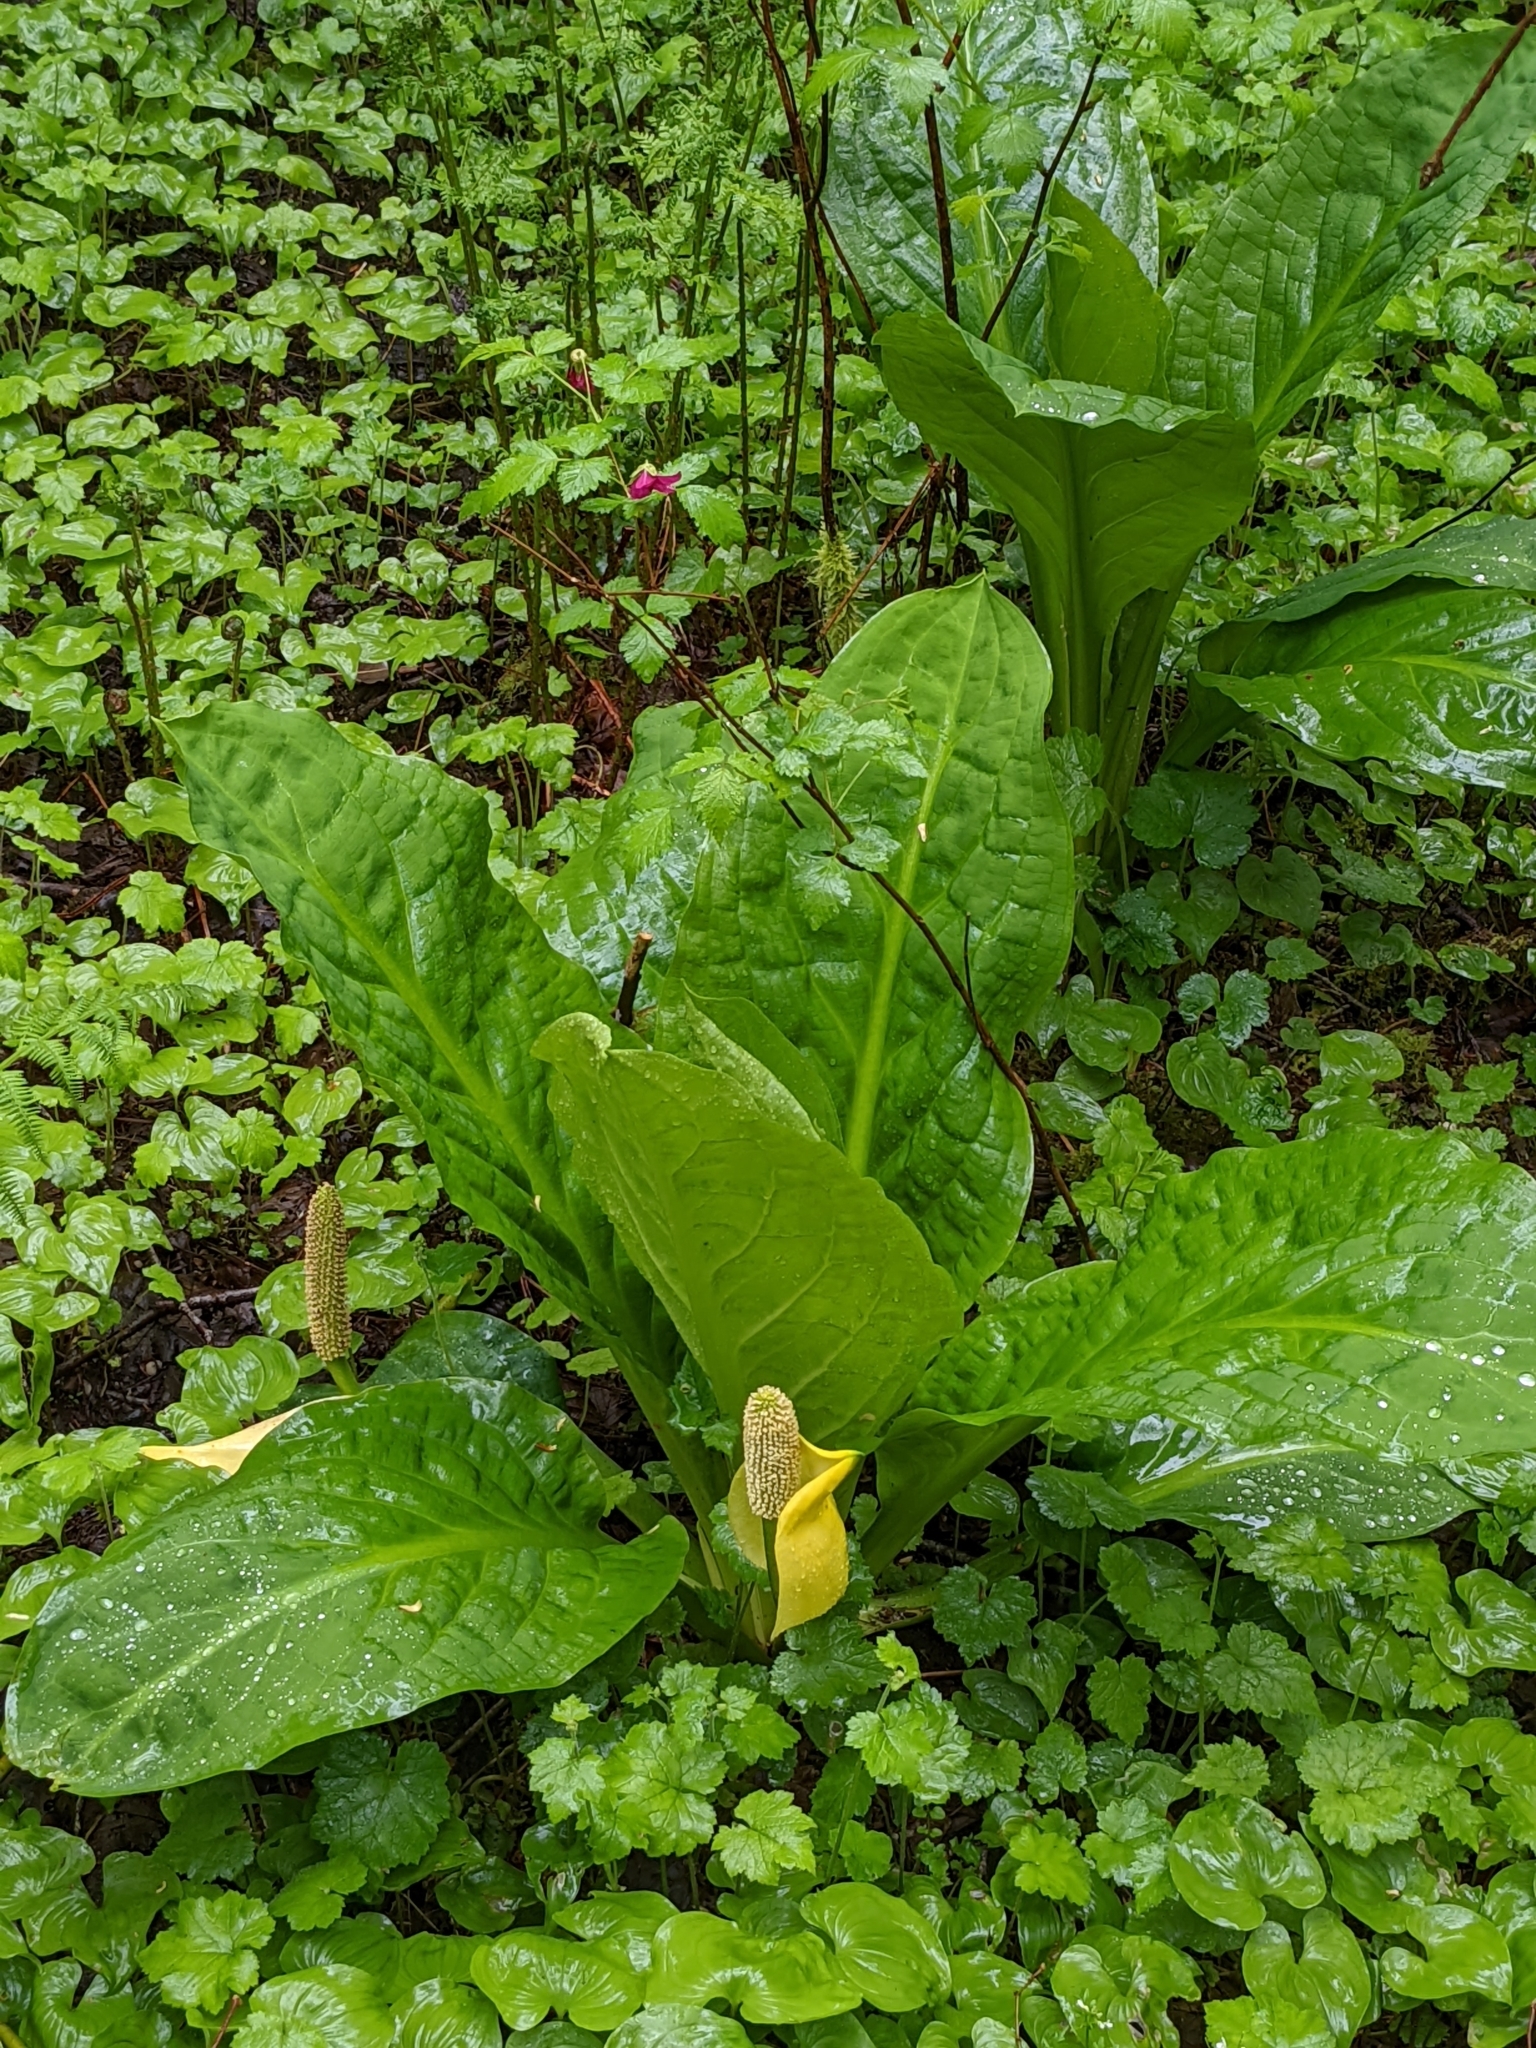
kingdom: Plantae
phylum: Tracheophyta
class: Liliopsida
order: Alismatales
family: Araceae
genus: Lysichiton
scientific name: Lysichiton americanus
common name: American skunk cabbage
